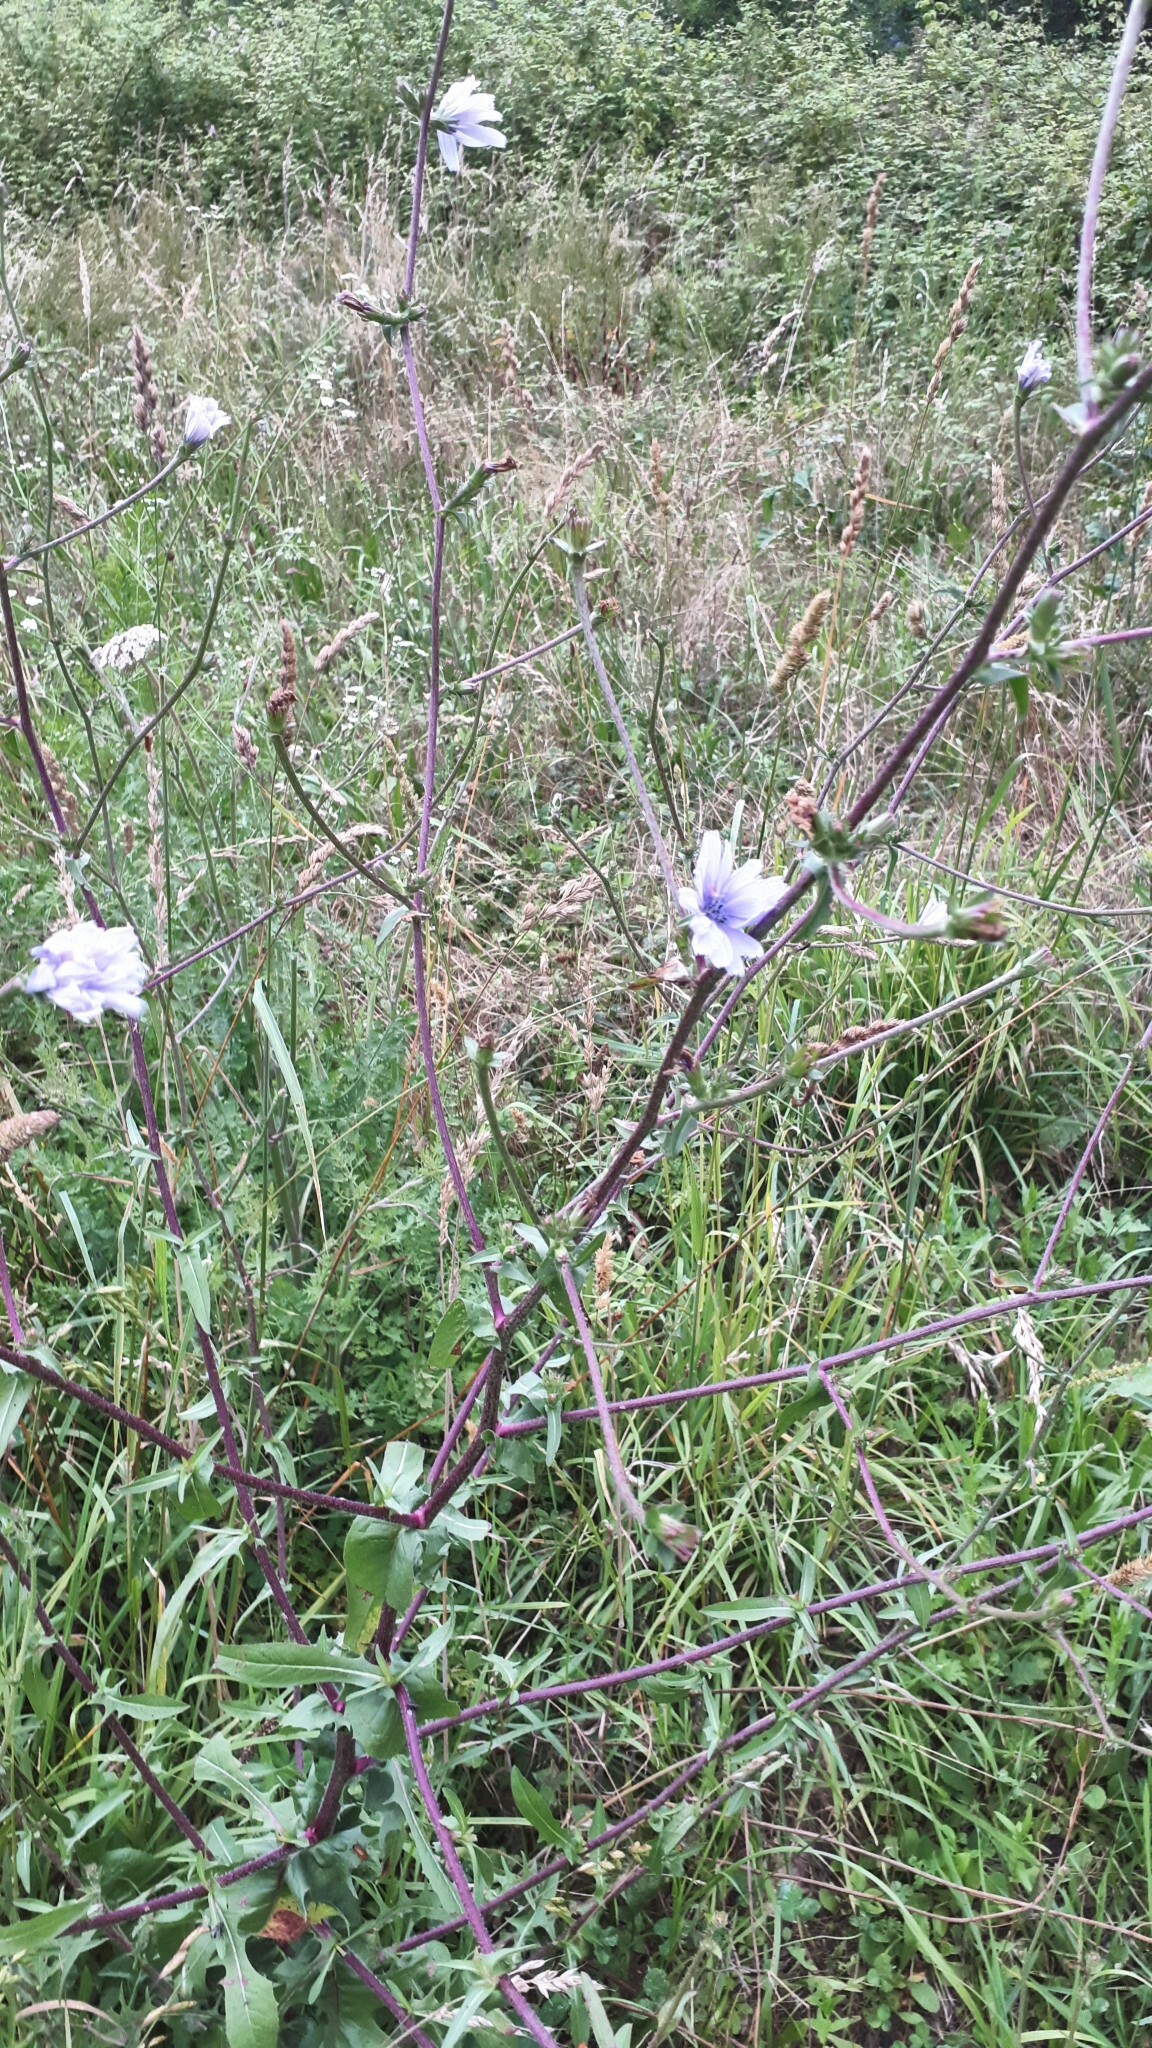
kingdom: Plantae
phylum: Tracheophyta
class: Magnoliopsida
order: Asterales
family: Asteraceae
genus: Cichorium
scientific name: Cichorium intybus
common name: Chicory
